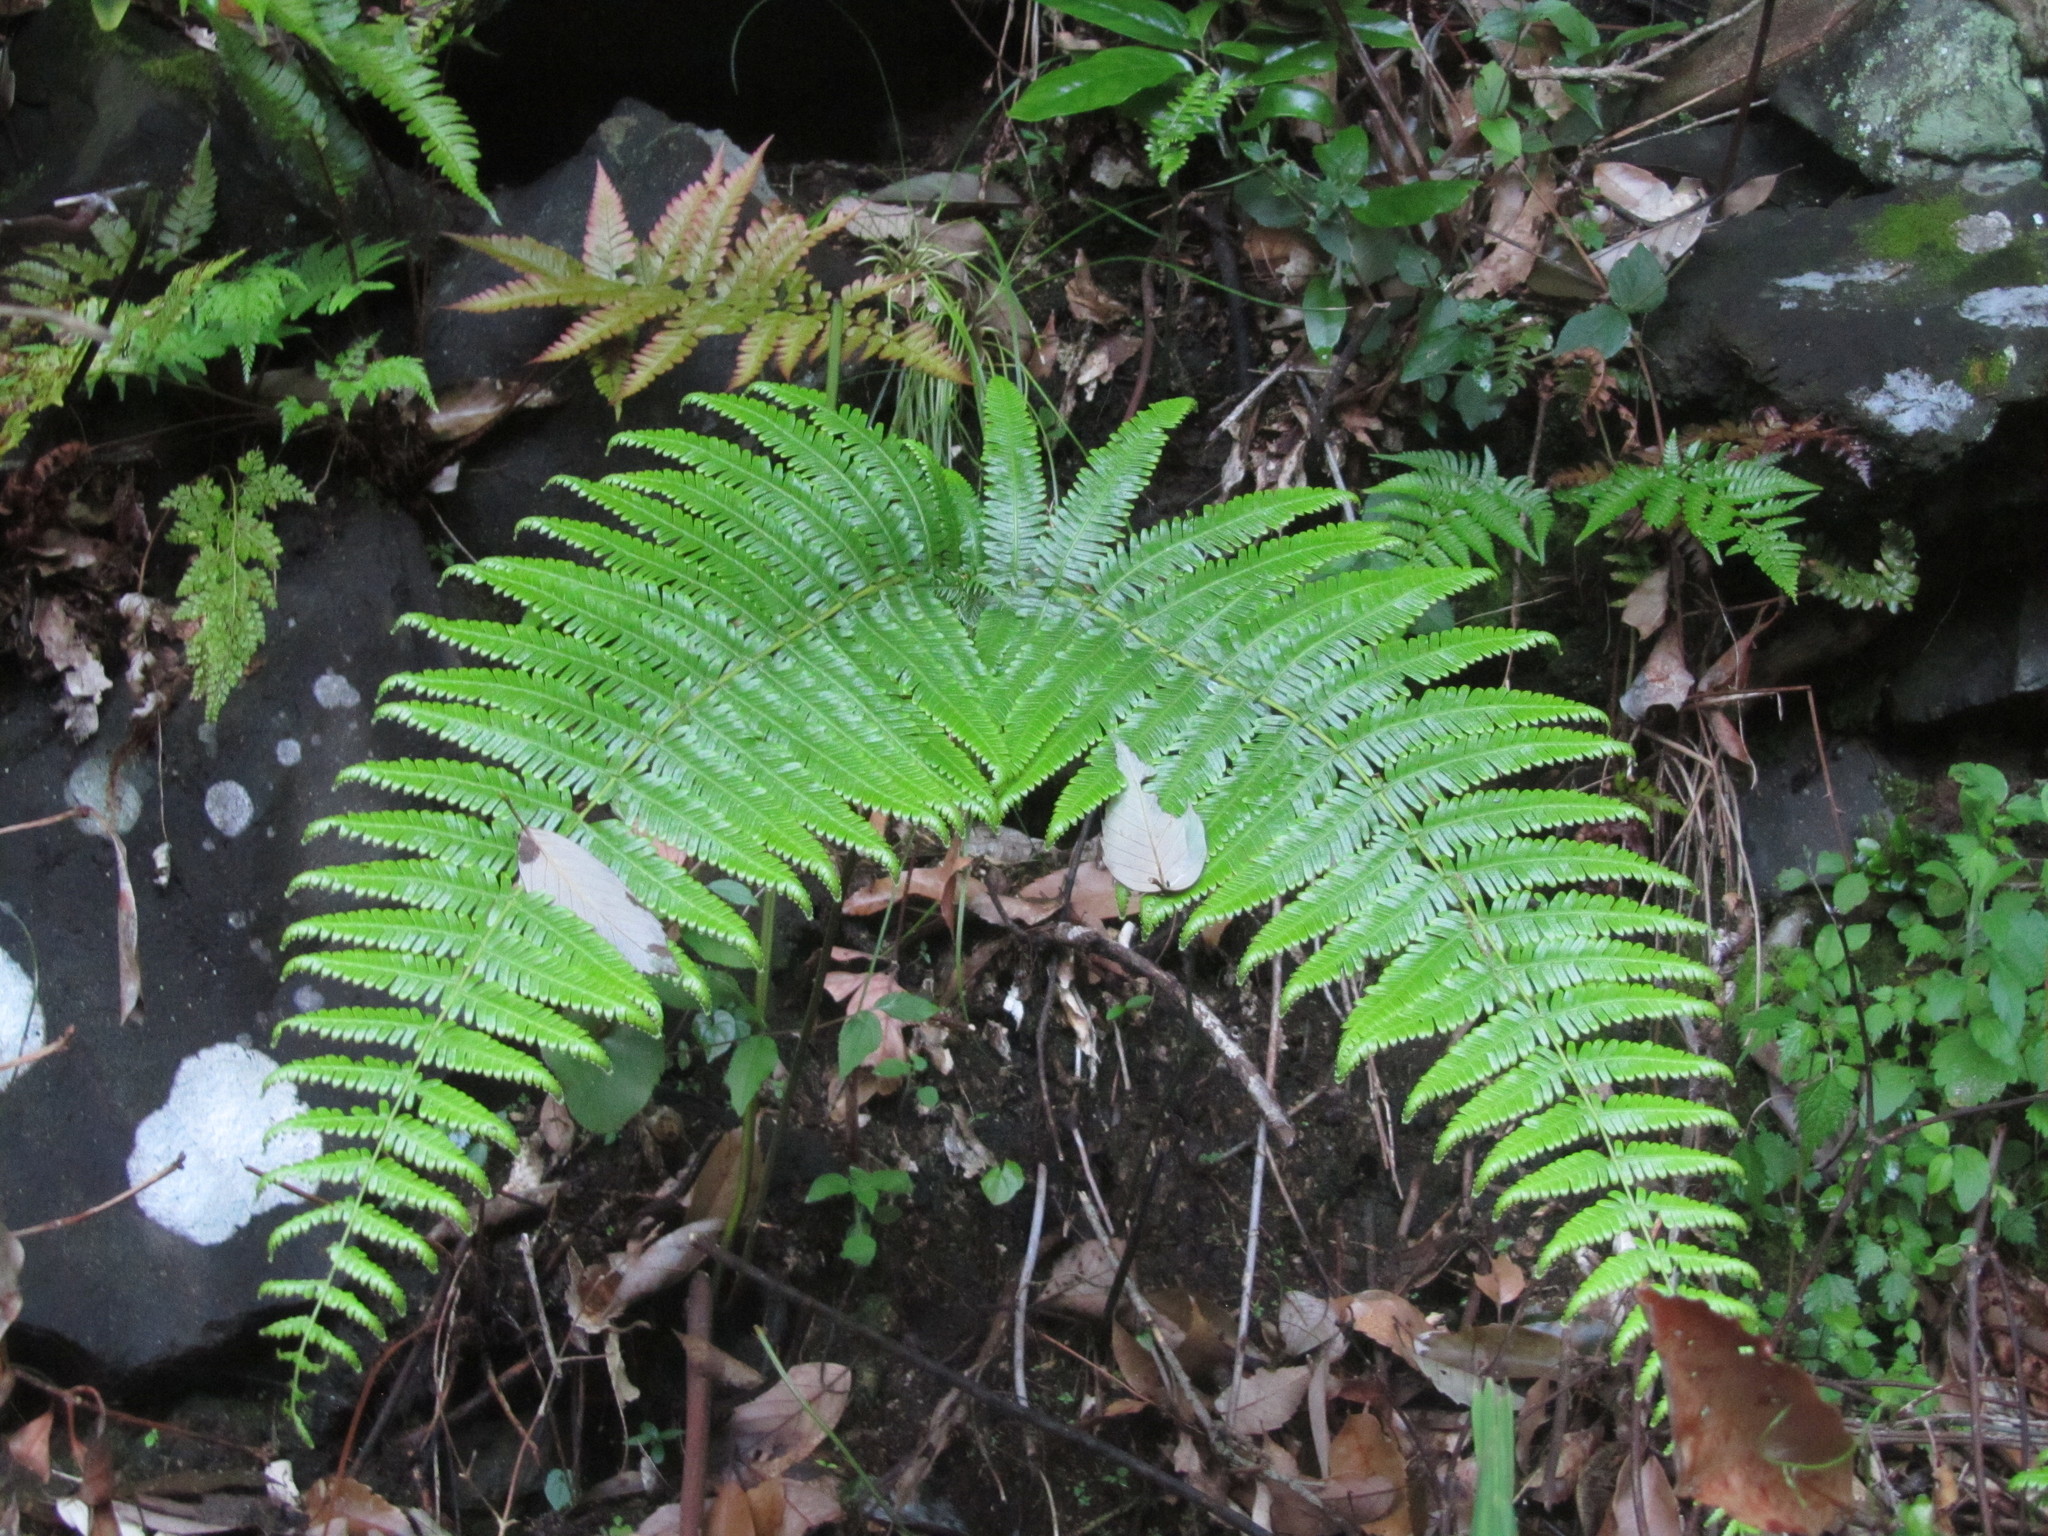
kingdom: Plantae
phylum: Tracheophyta
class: Polypodiopsida
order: Gleicheniales
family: Gleicheniaceae
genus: Diplopterygium
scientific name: Diplopterygium glaucum
